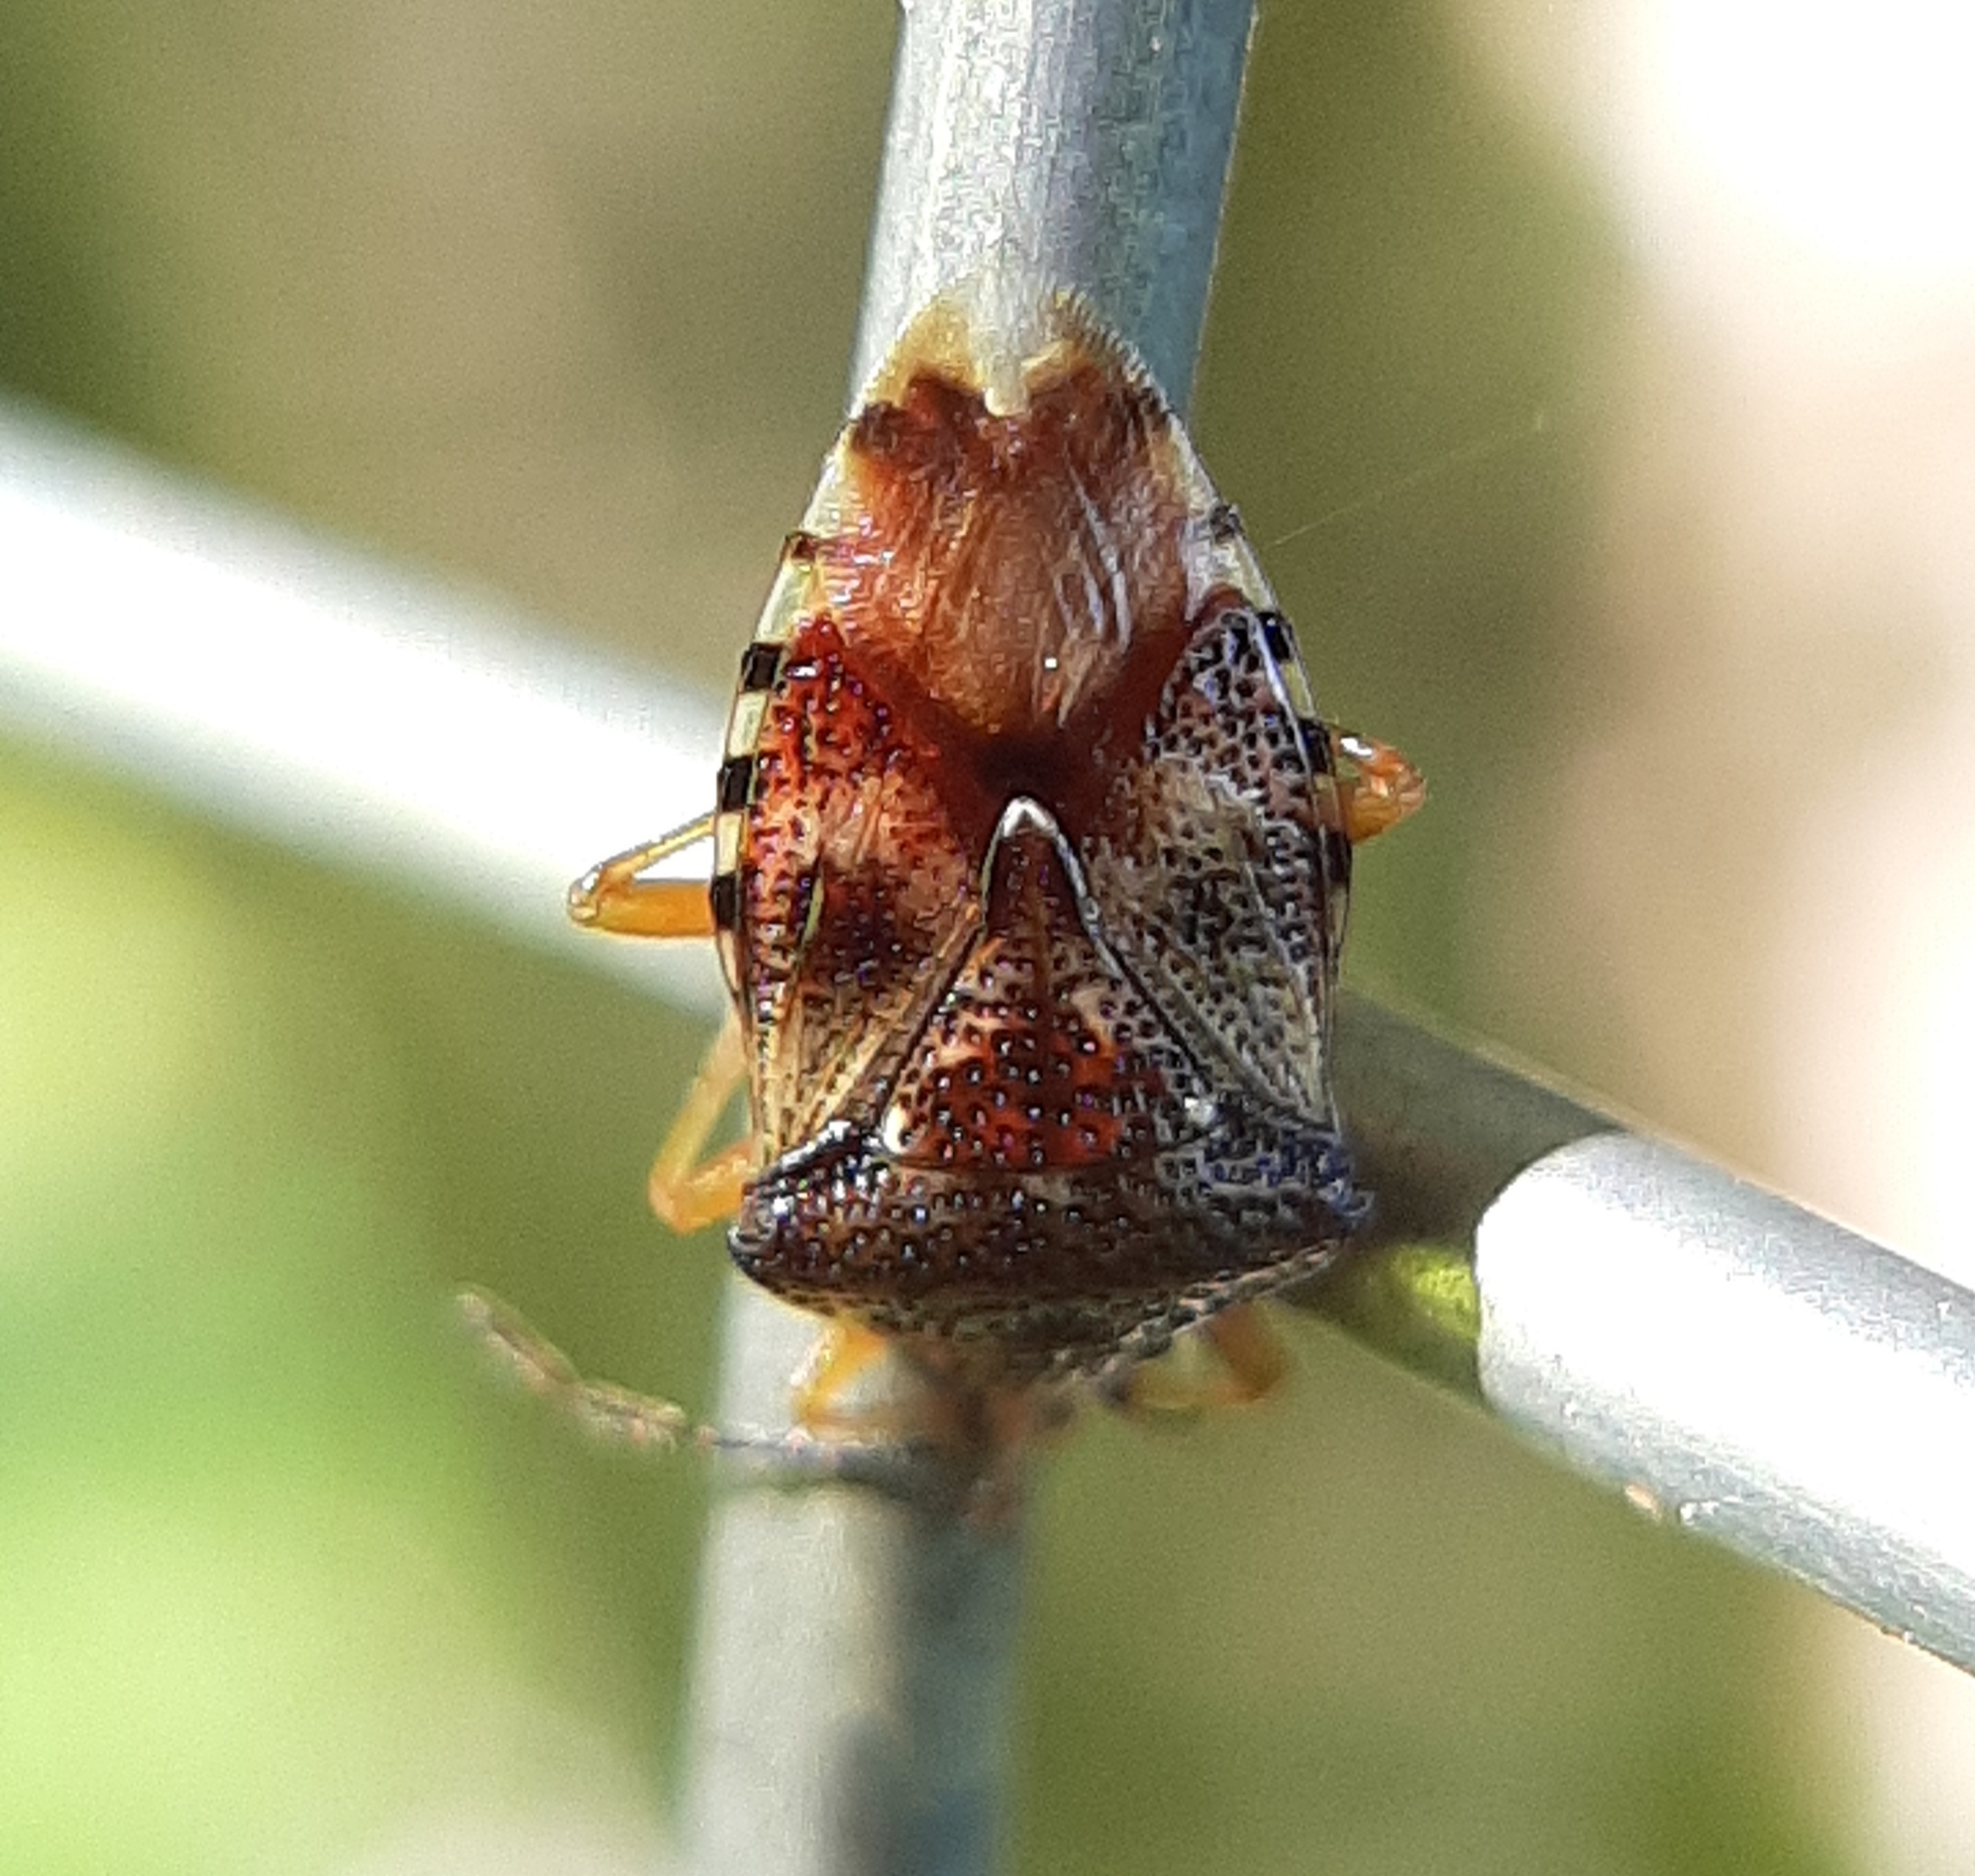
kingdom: Animalia
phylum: Arthropoda
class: Insecta
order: Hemiptera
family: Acanthosomatidae
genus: Elasmucha
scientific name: Elasmucha lateralis
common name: Shield bug
